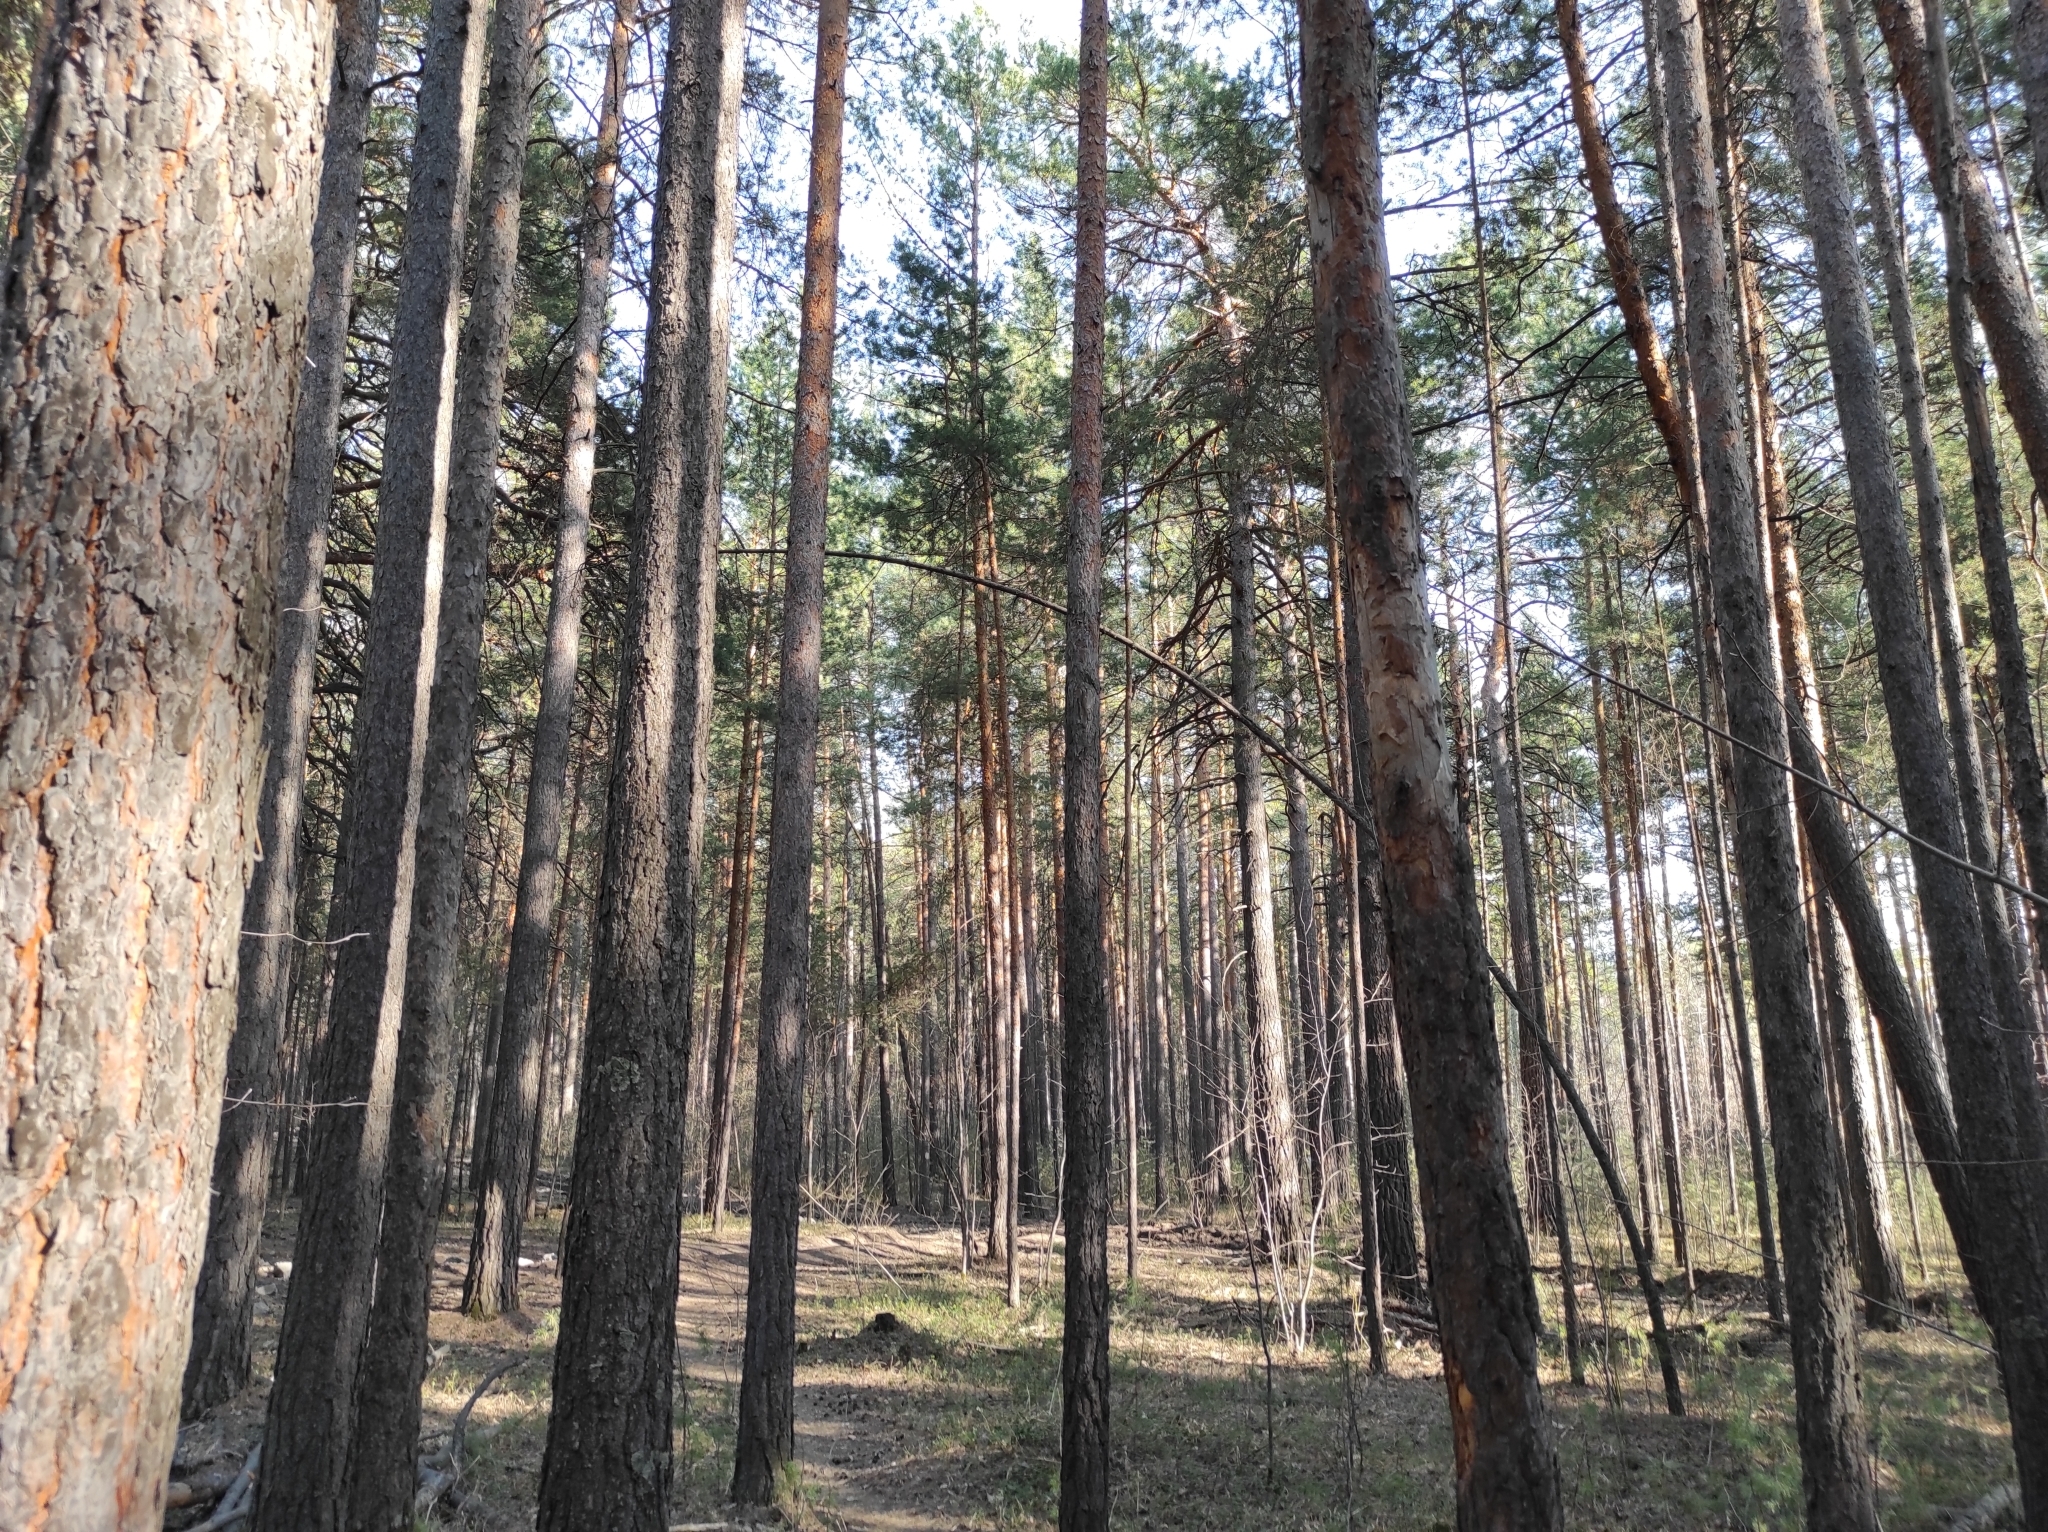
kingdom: Plantae
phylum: Tracheophyta
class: Pinopsida
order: Pinales
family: Pinaceae
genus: Pinus
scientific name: Pinus sylvestris
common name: Scots pine
